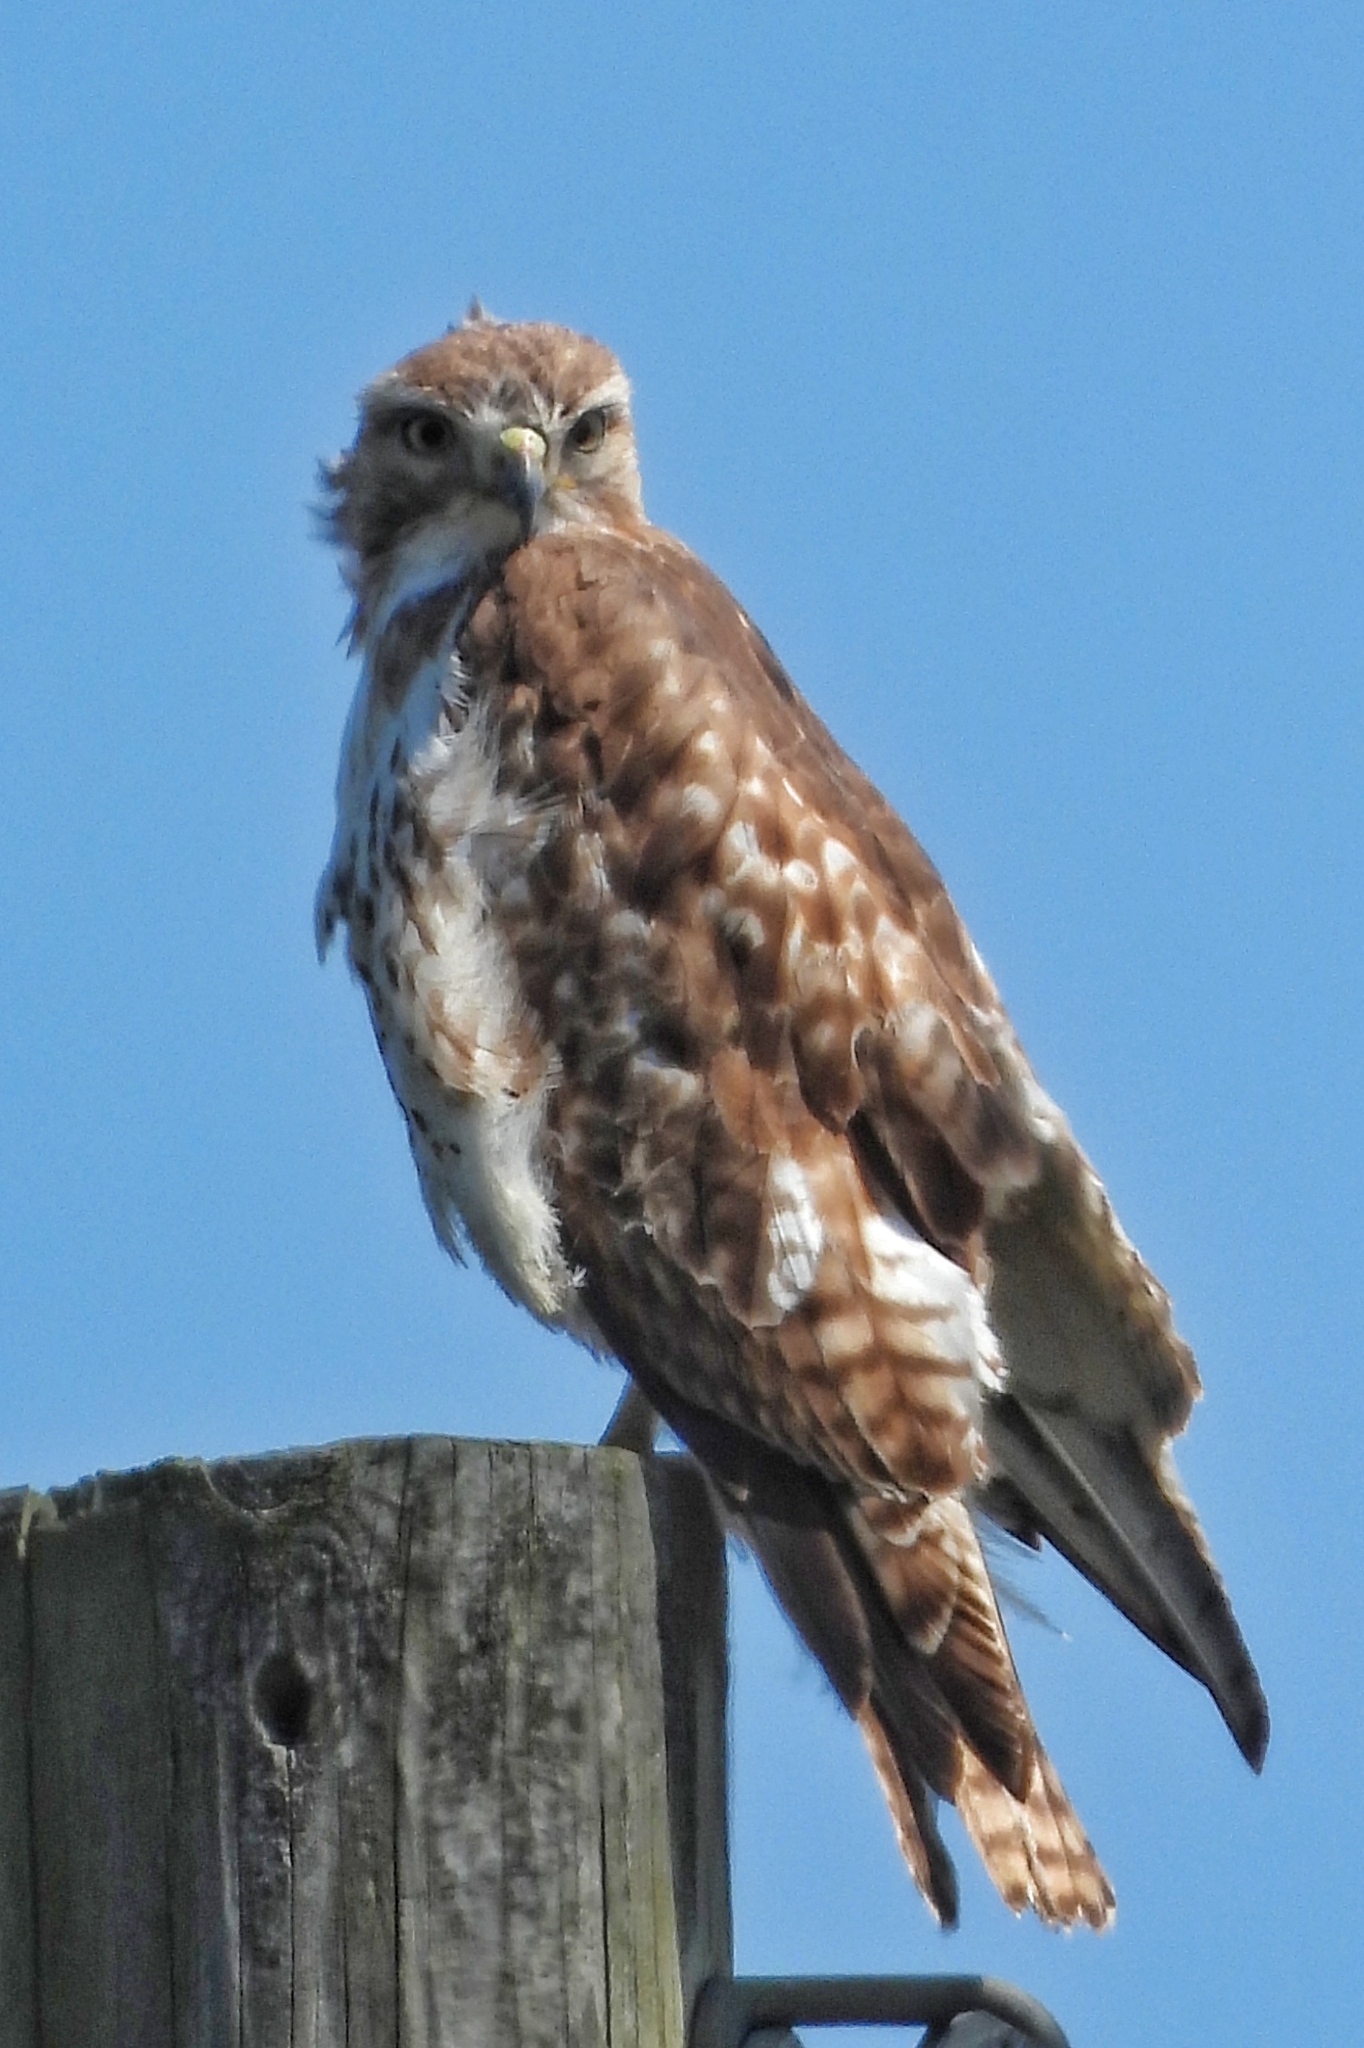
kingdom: Animalia
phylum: Chordata
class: Aves
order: Accipitriformes
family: Accipitridae
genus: Buteo
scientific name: Buteo jamaicensis
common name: Red-tailed hawk
